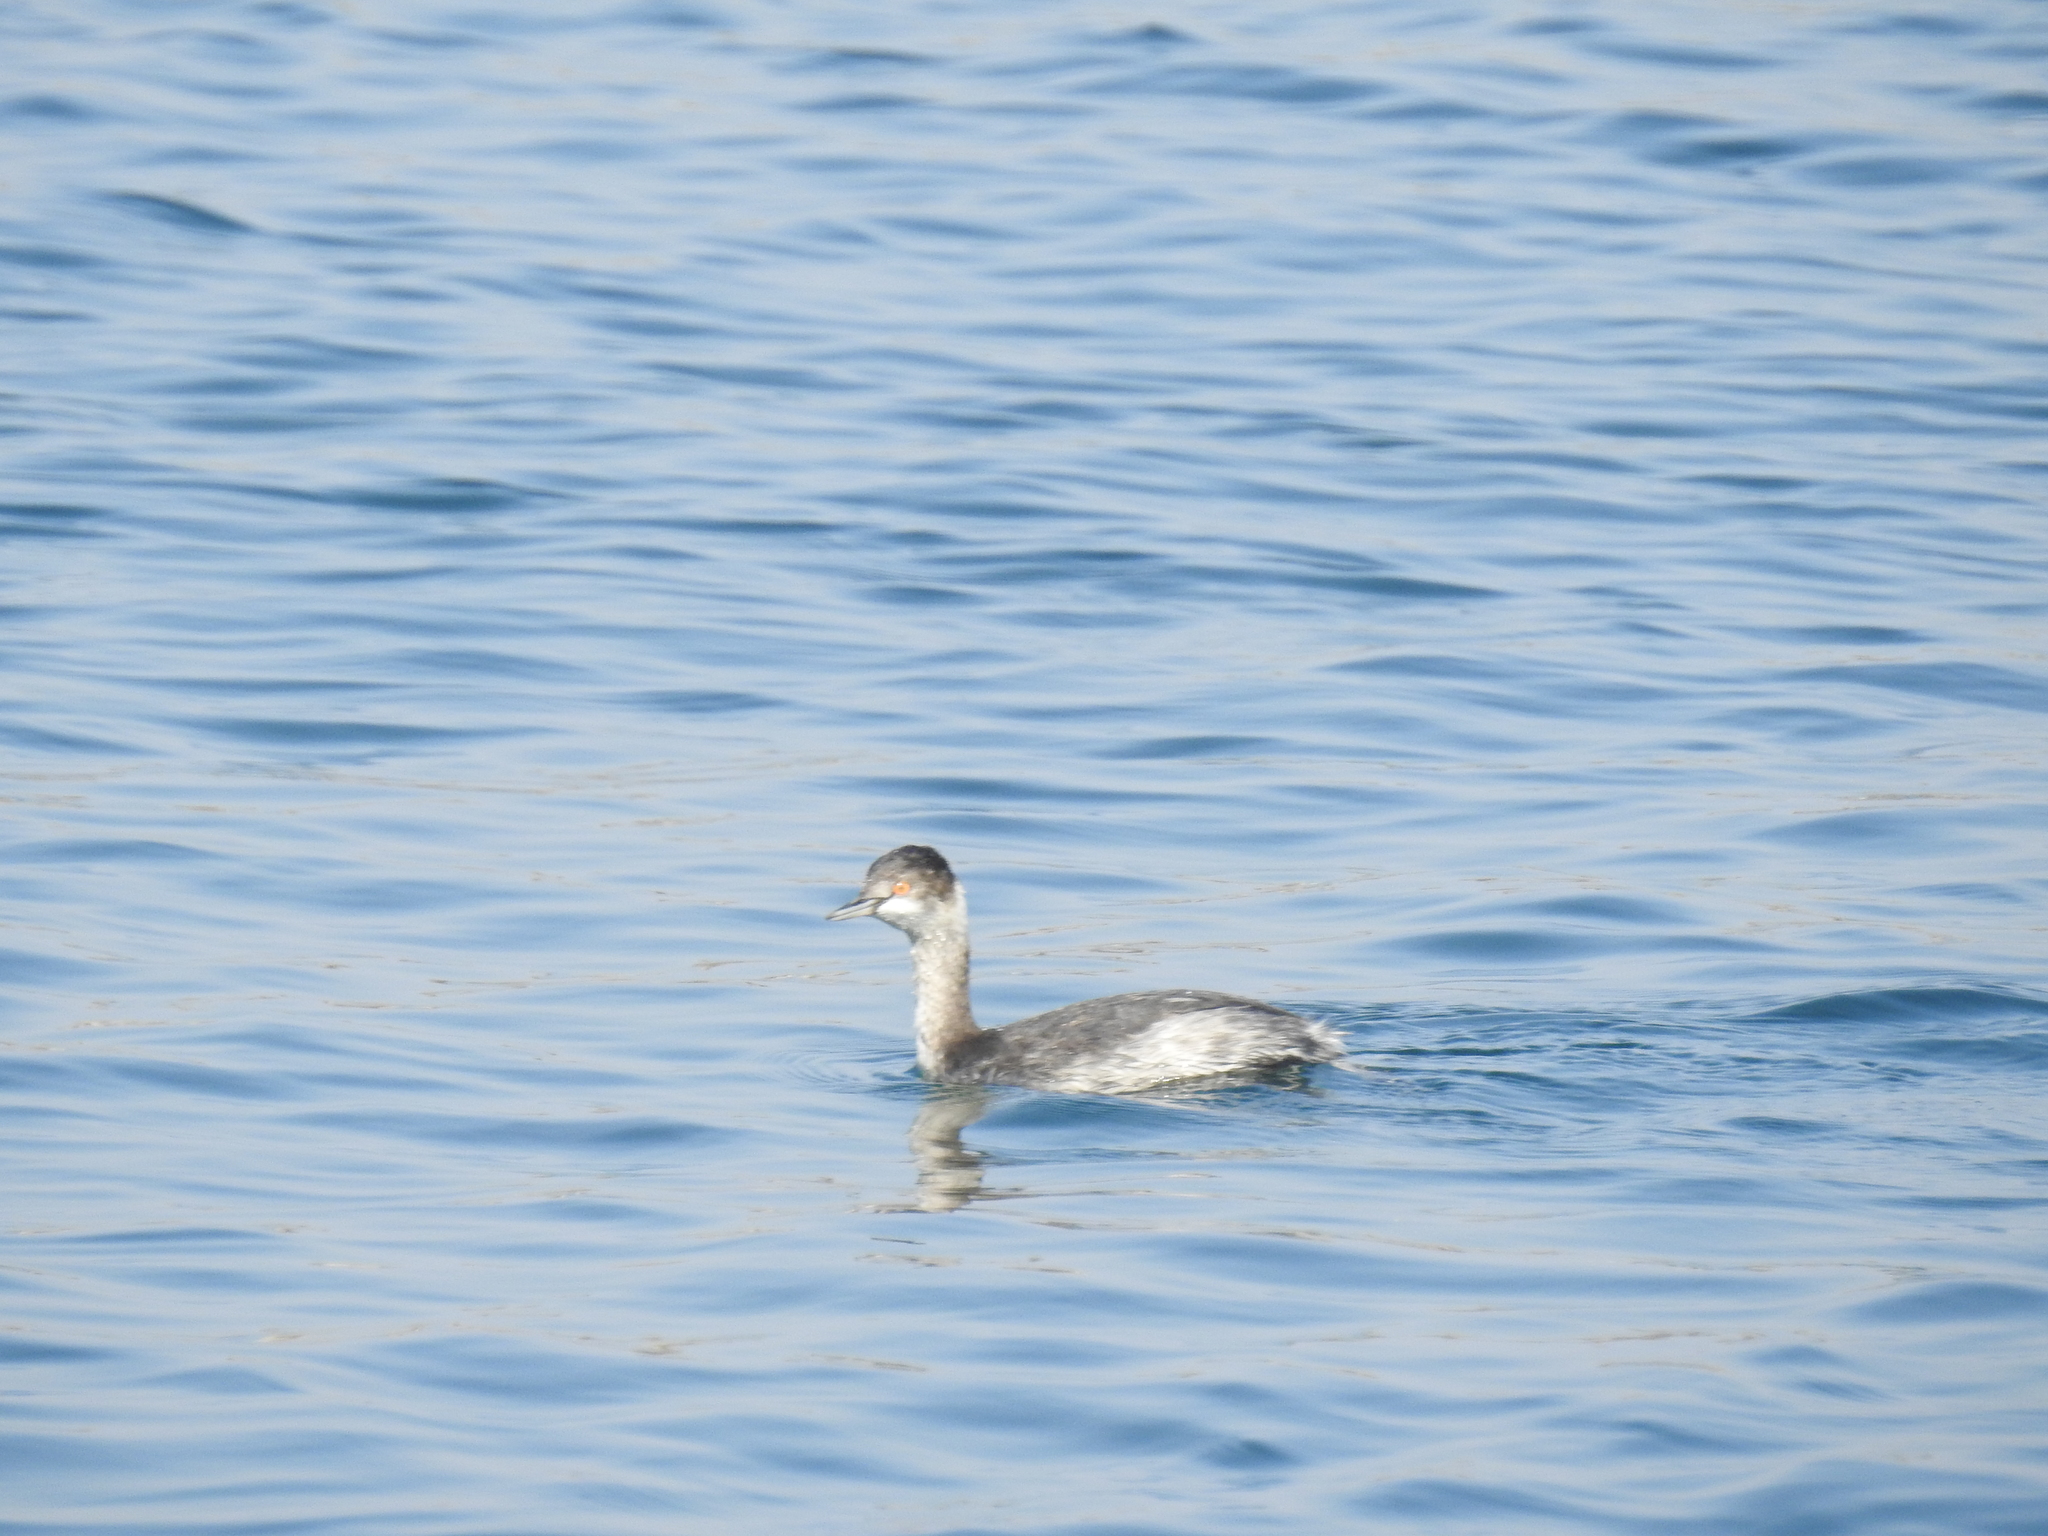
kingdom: Animalia
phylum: Chordata
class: Aves
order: Podicipediformes
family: Podicipedidae
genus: Podiceps
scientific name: Podiceps nigricollis
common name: Black-necked grebe
